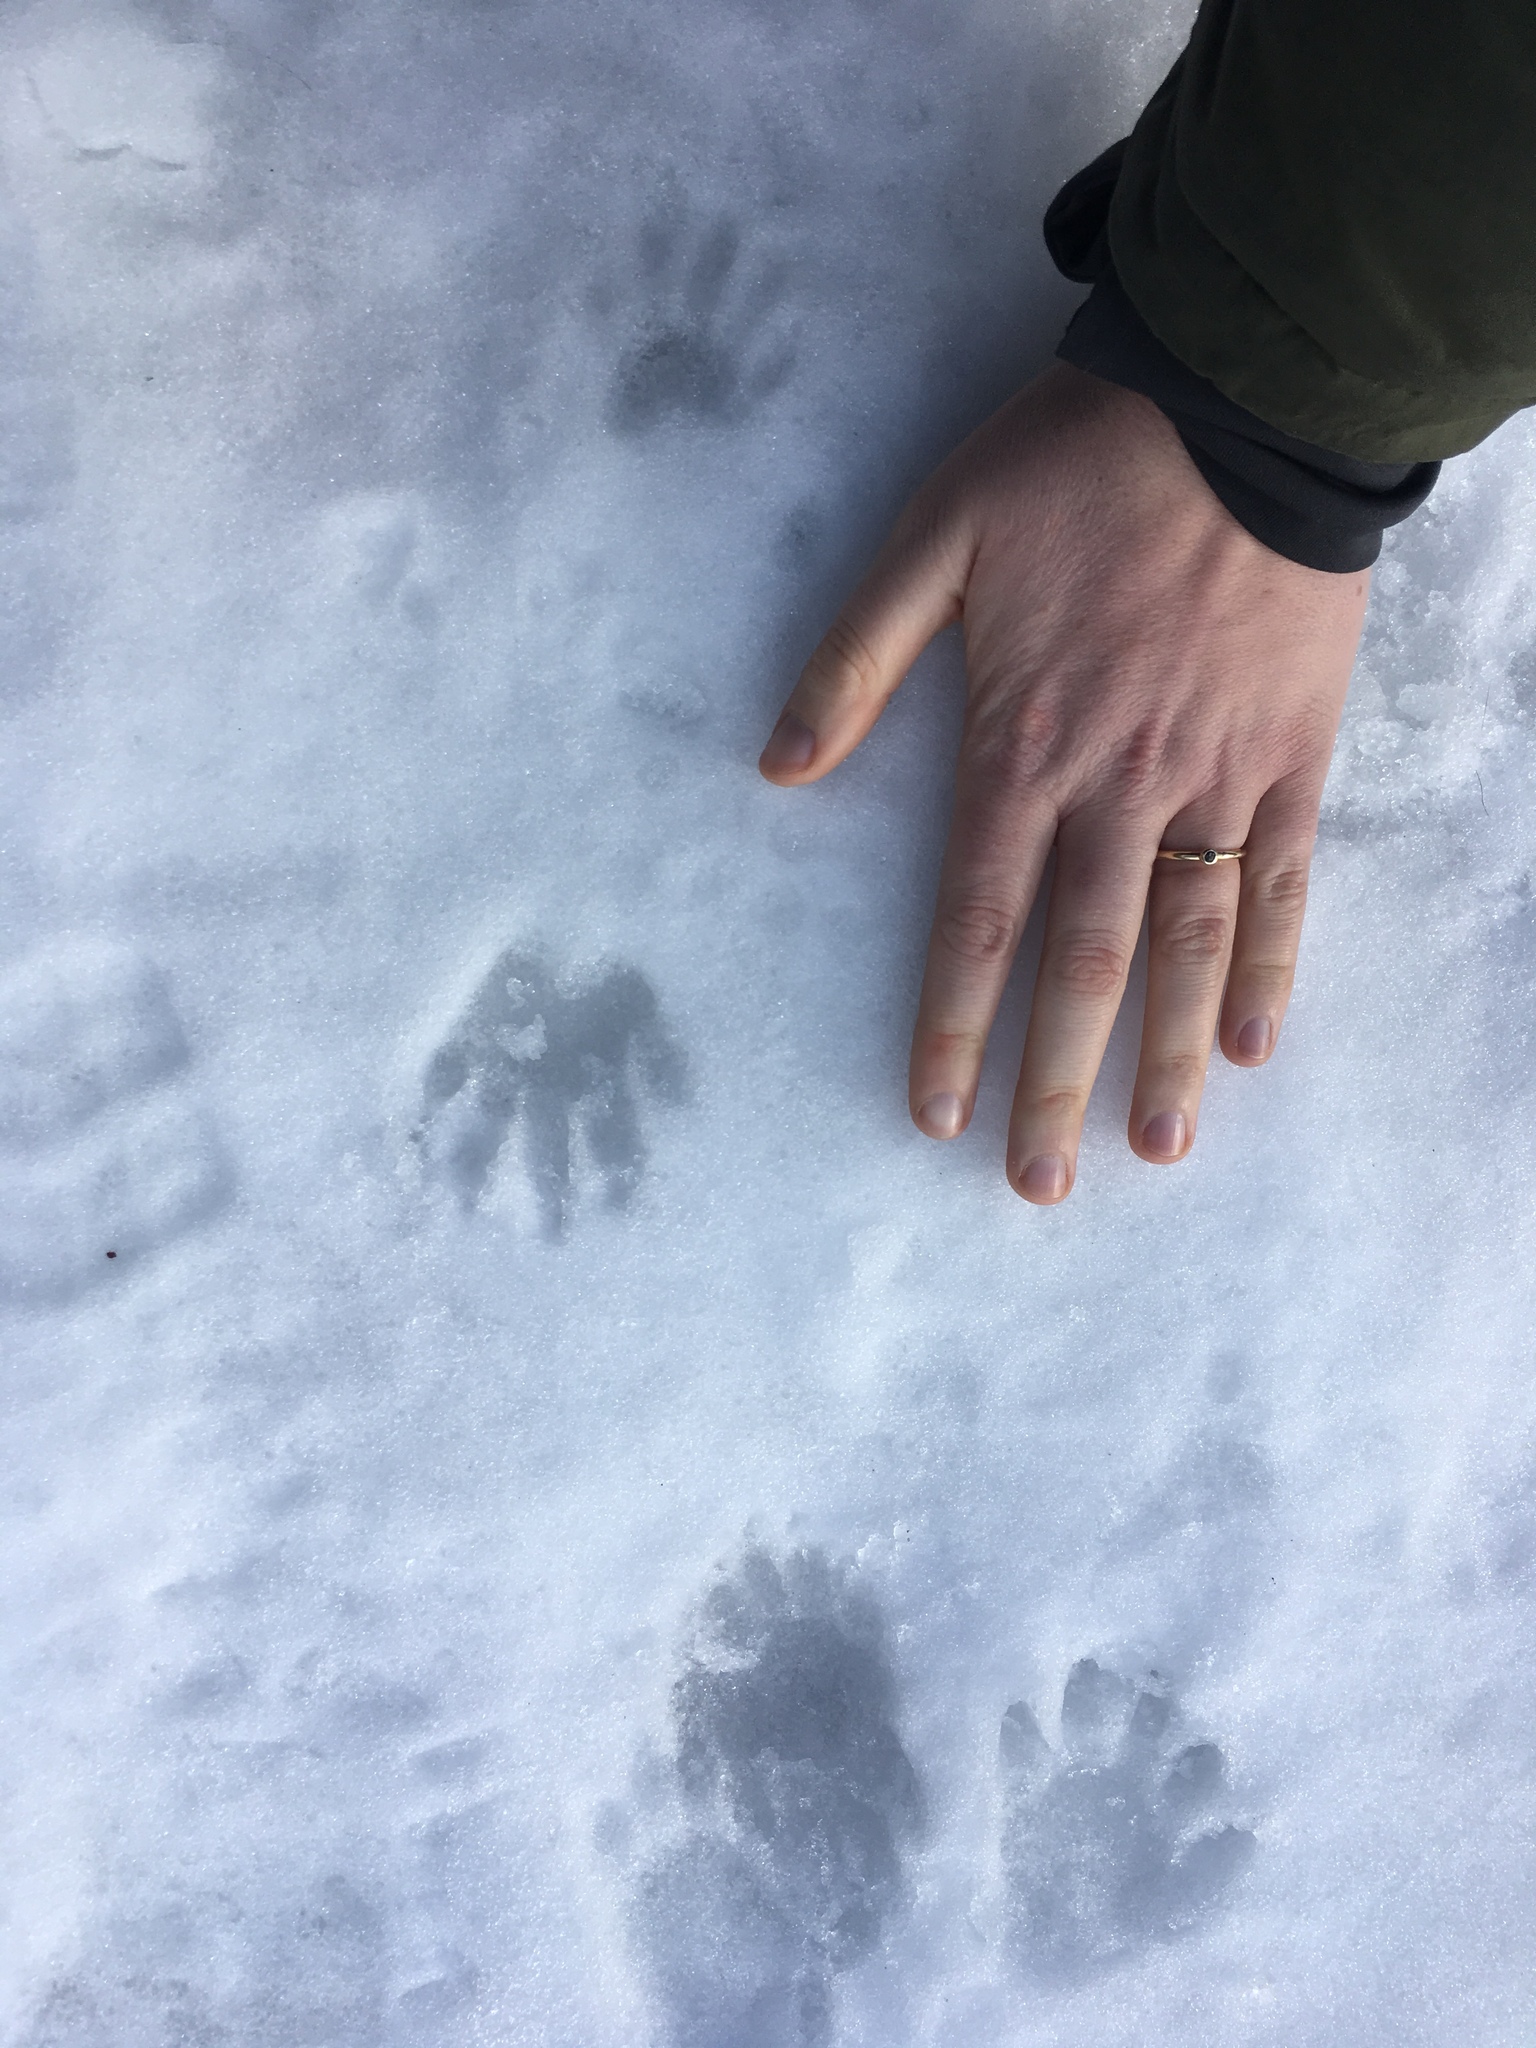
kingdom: Animalia
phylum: Chordata
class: Mammalia
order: Carnivora
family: Procyonidae
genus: Procyon
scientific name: Procyon lotor
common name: Raccoon
